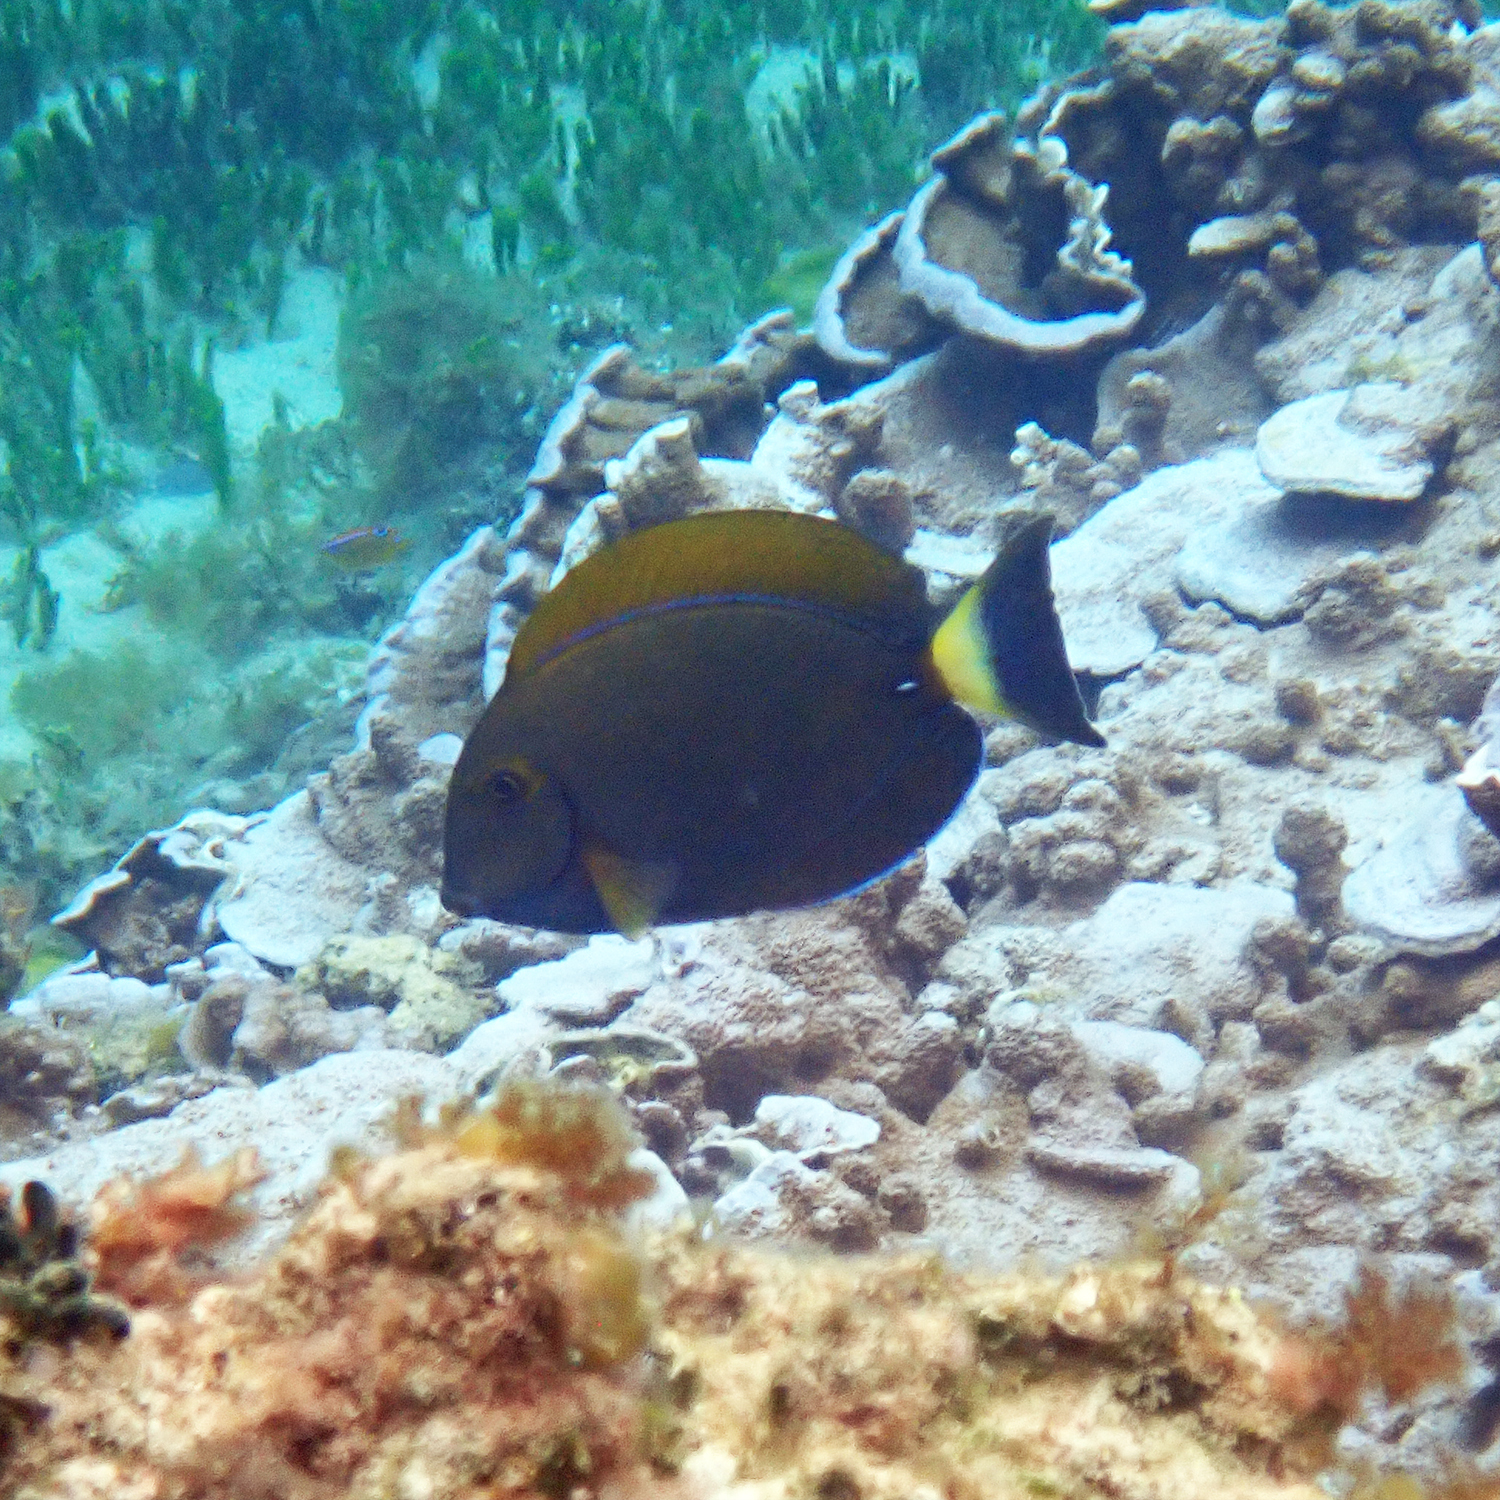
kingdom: Animalia
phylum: Chordata
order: Perciformes
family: Acanthuridae
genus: Acanthurus
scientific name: Acanthurus dussumieri
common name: Dussumier's surgeonfish
